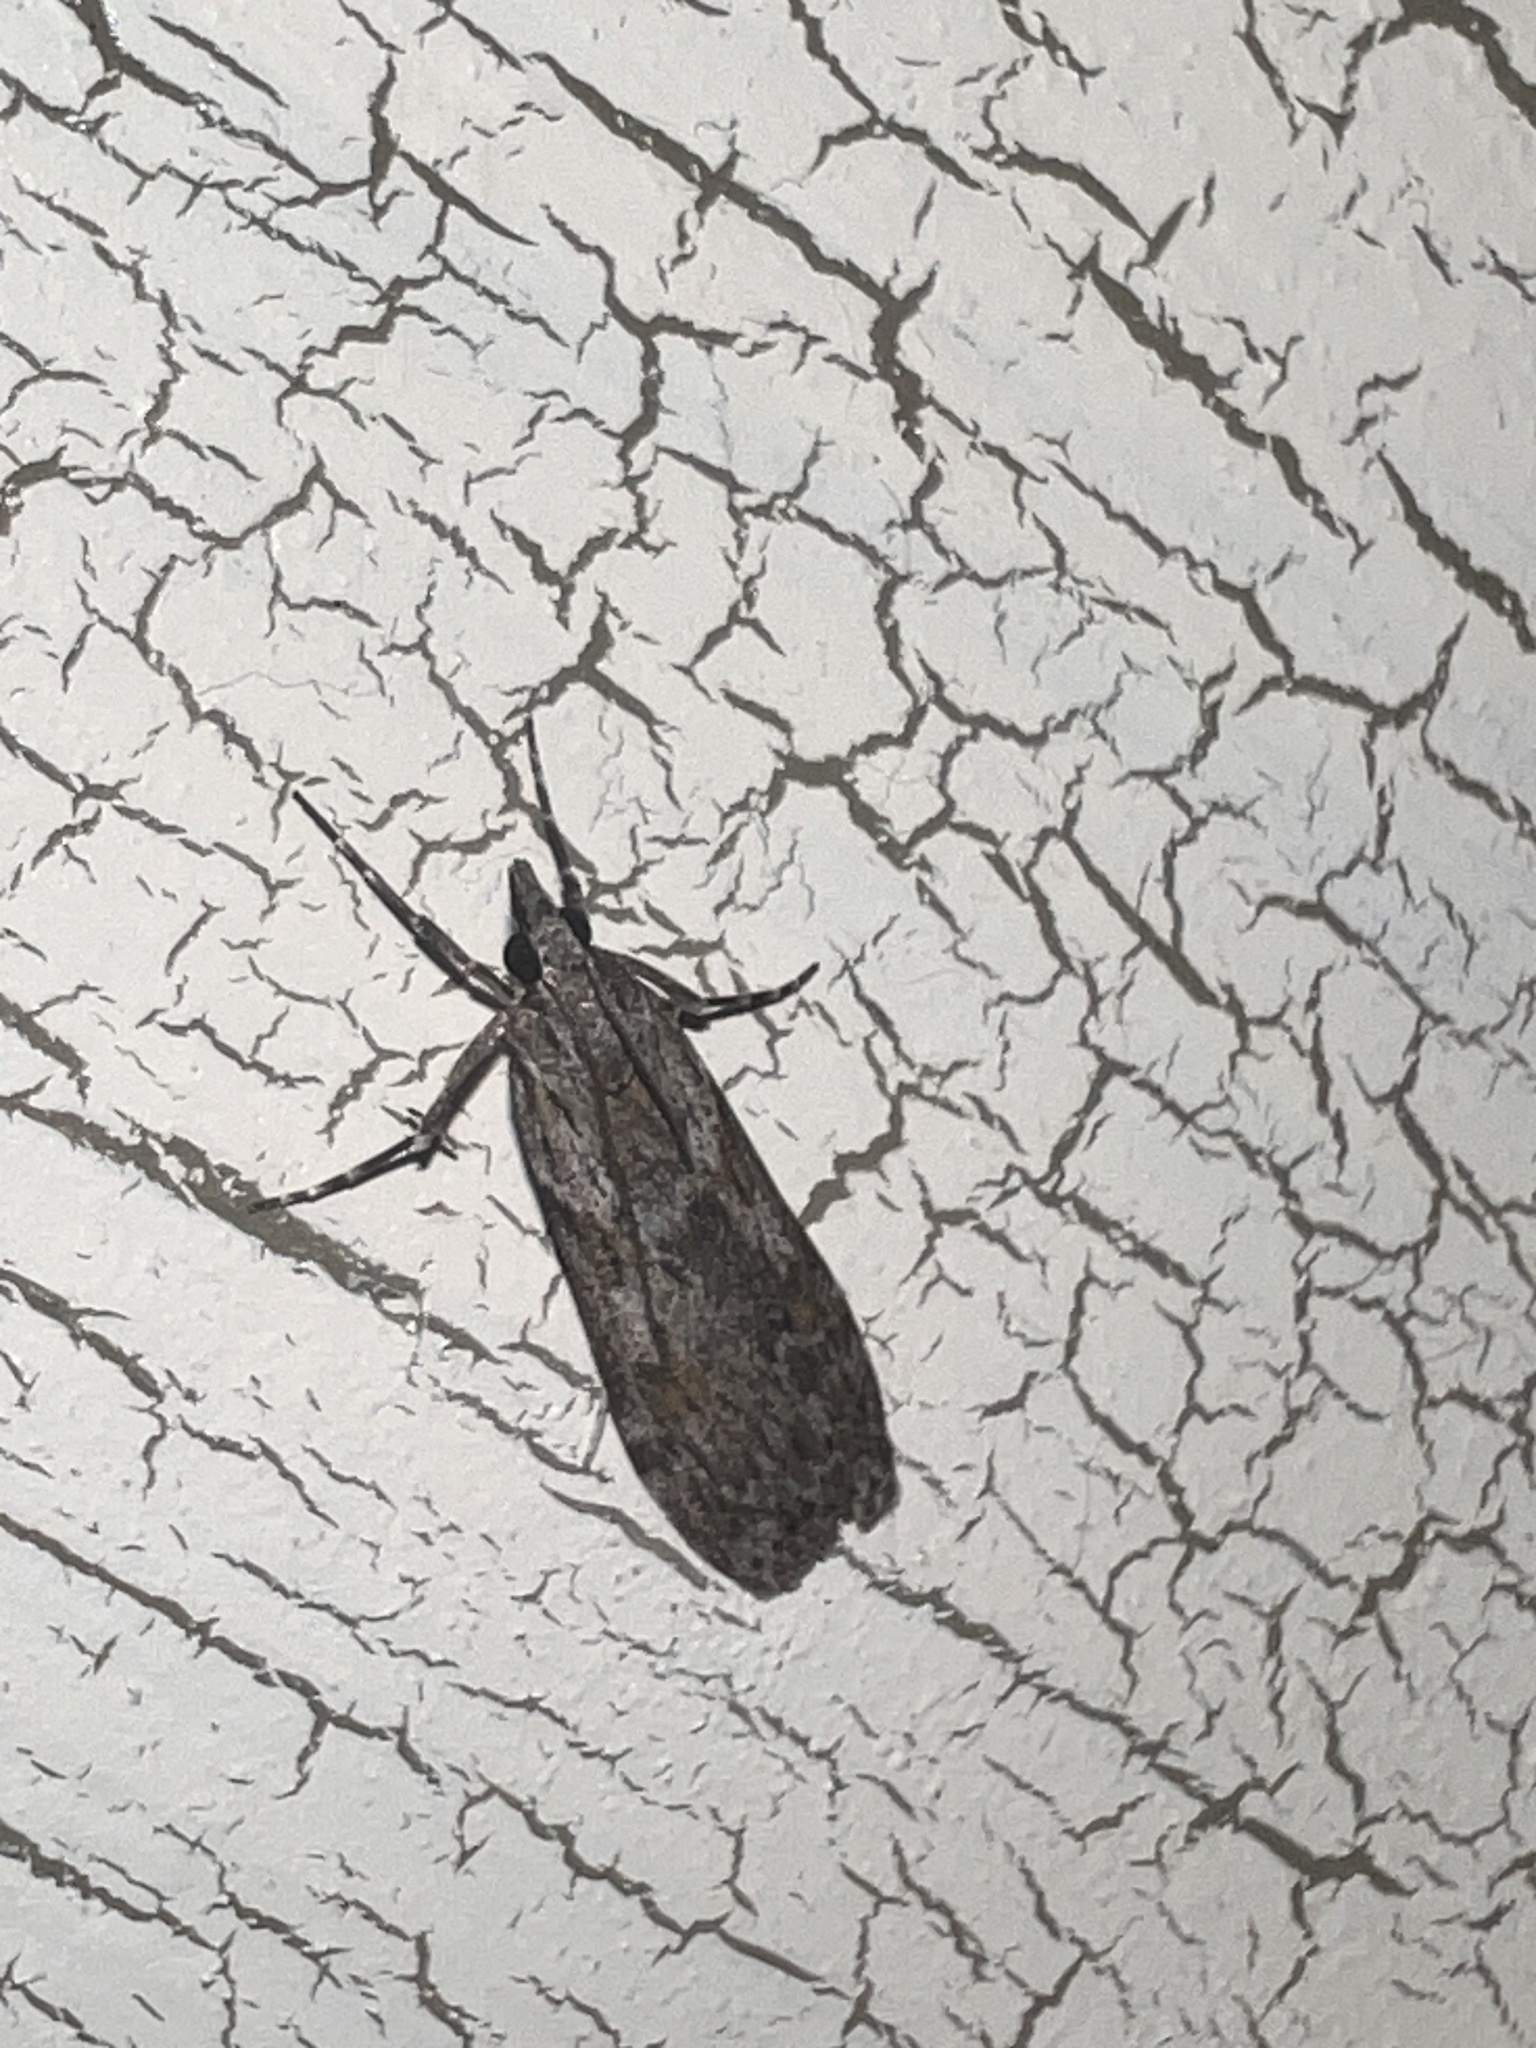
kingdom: Animalia
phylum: Arthropoda
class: Insecta
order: Lepidoptera
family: Crambidae
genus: Scoparia
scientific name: Scoparia halopis
